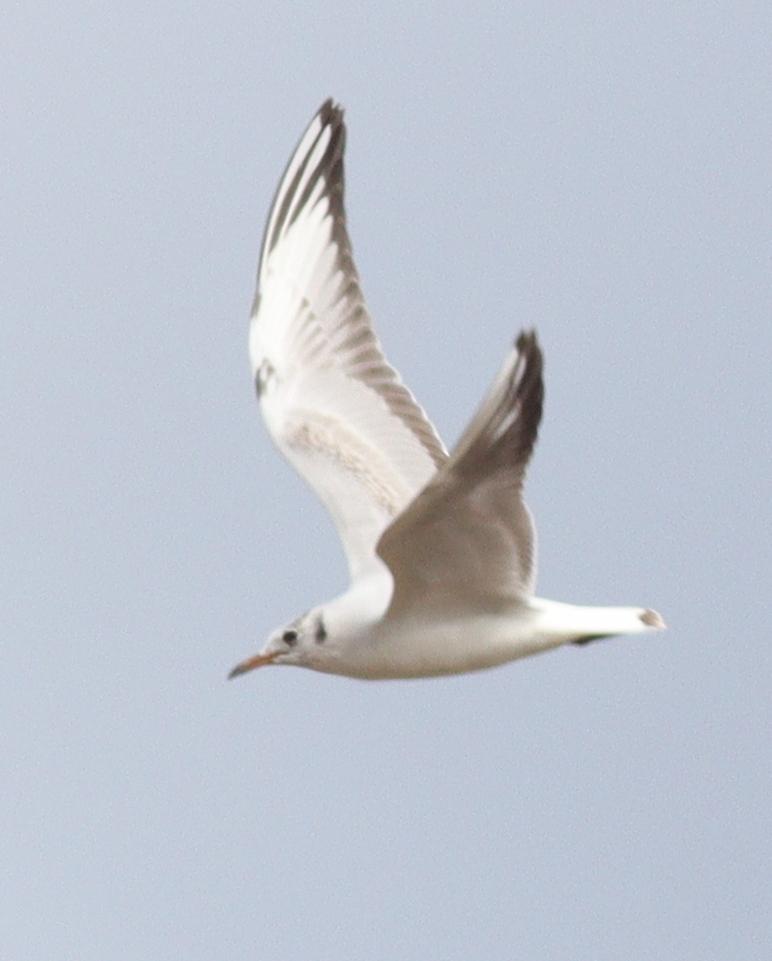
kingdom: Animalia
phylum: Chordata
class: Aves
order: Charadriiformes
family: Laridae
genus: Chroicocephalus
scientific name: Chroicocephalus ridibundus
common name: Black-headed gull
